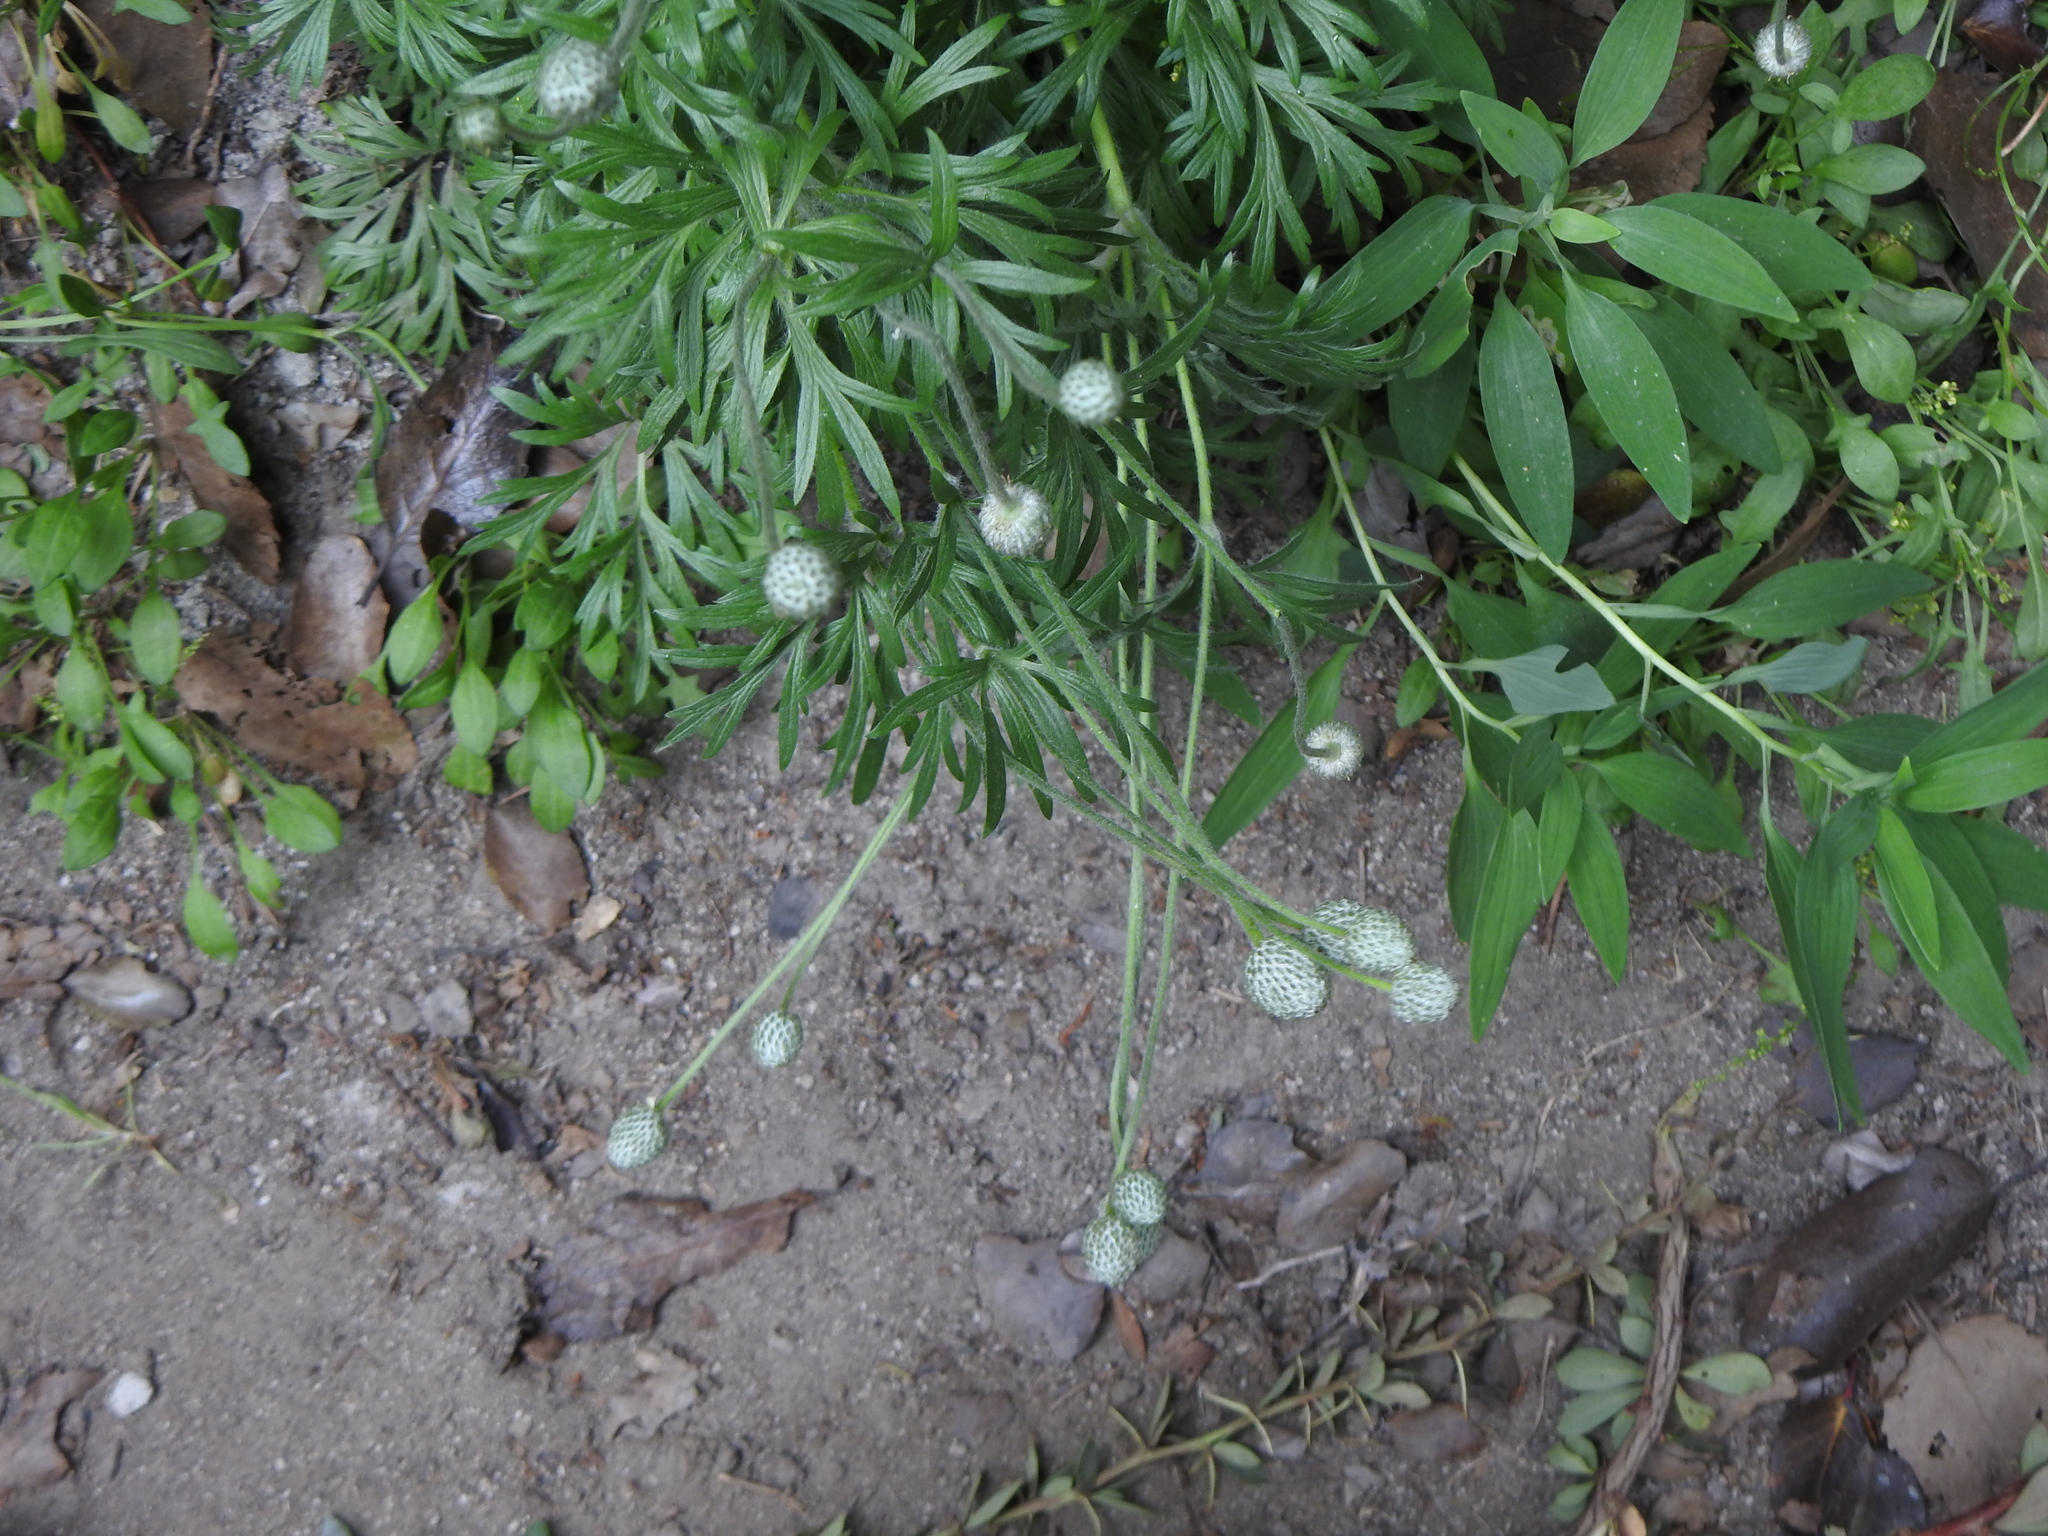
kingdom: Plantae
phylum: Tracheophyta
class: Magnoliopsida
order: Ranunculales
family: Ranunculaceae
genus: Anemone
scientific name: Anemone multifida
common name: Bird's-foot anemone
